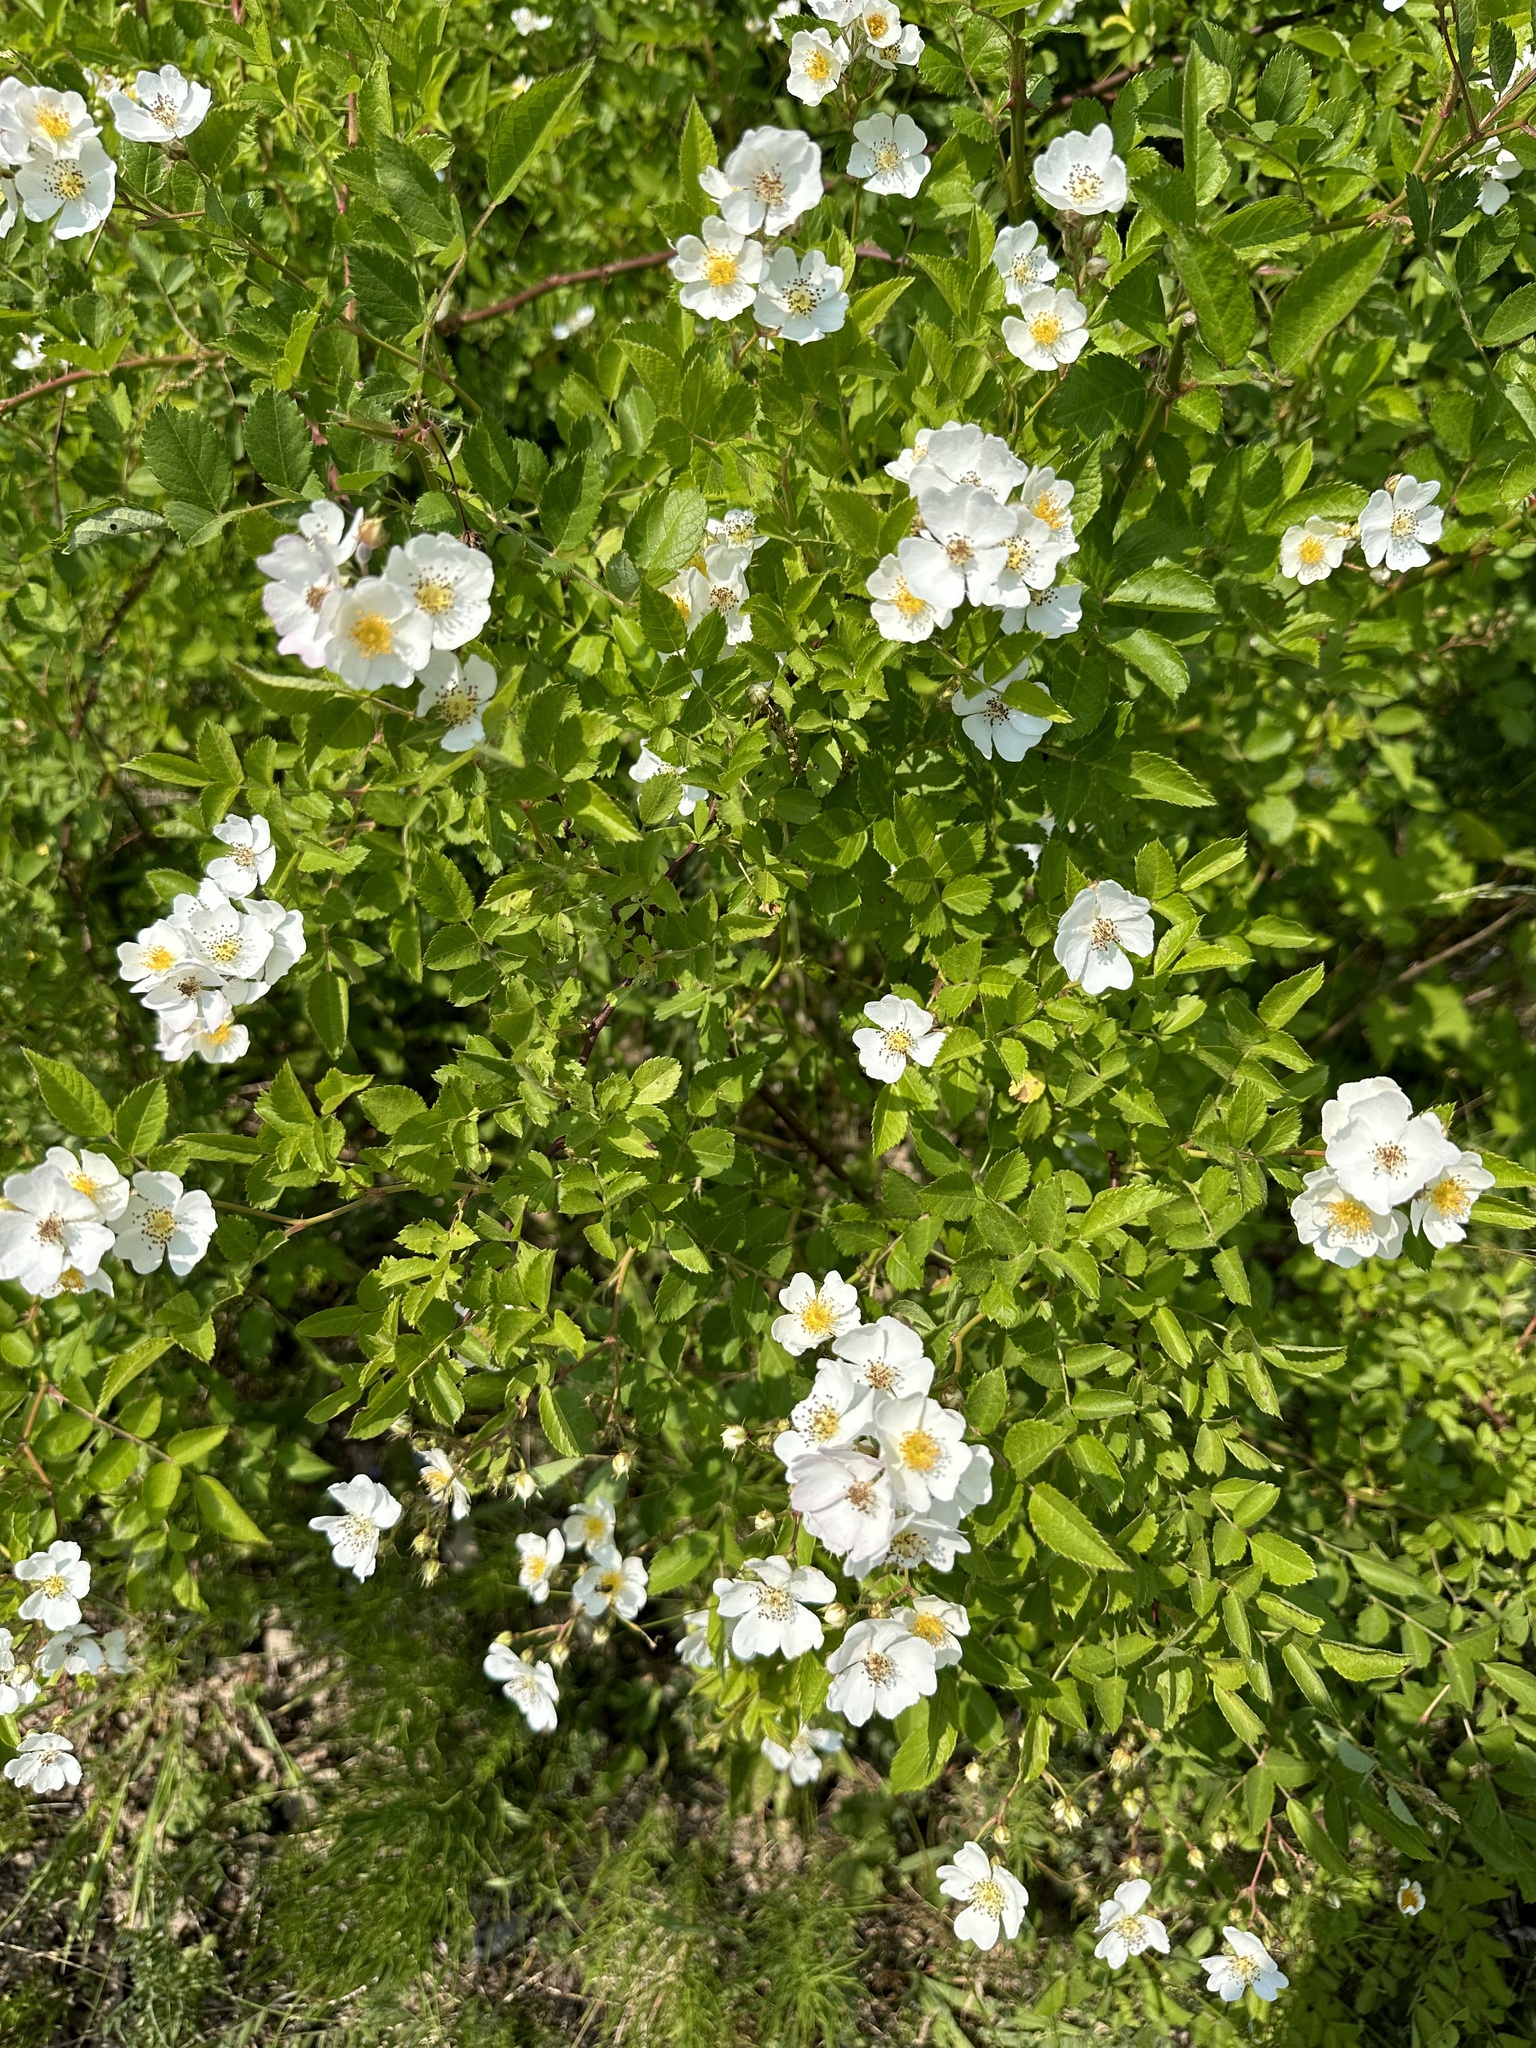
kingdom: Plantae
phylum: Tracheophyta
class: Magnoliopsida
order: Rosales
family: Rosaceae
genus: Rosa
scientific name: Rosa multiflora
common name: Multiflora rose
